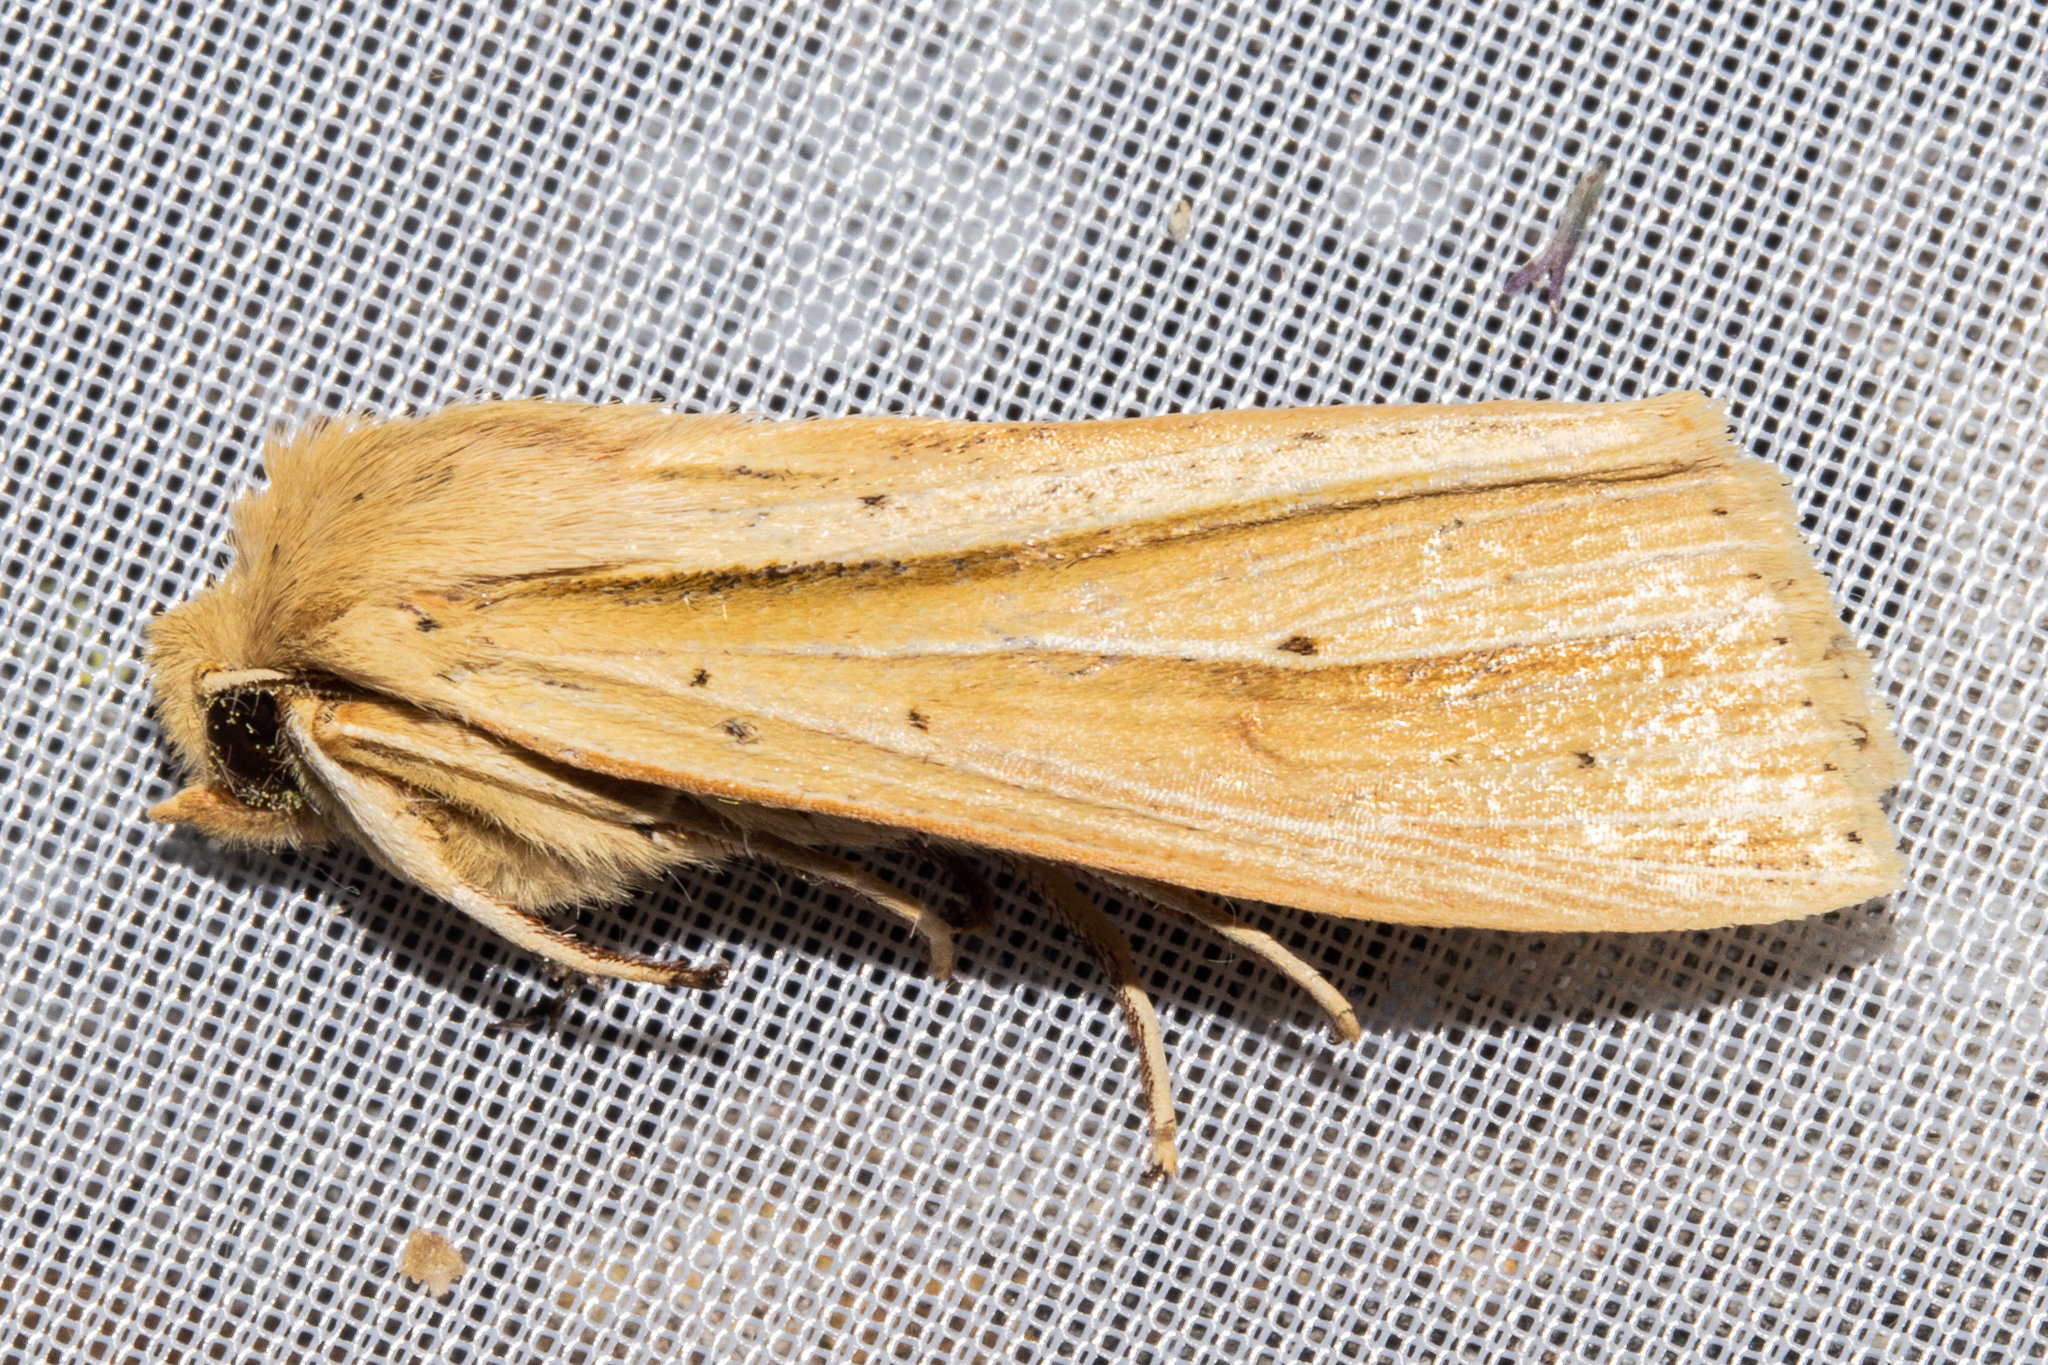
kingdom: Animalia
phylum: Arthropoda
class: Insecta
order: Lepidoptera
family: Noctuidae
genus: Ichneutica
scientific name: Ichneutica sulcana
